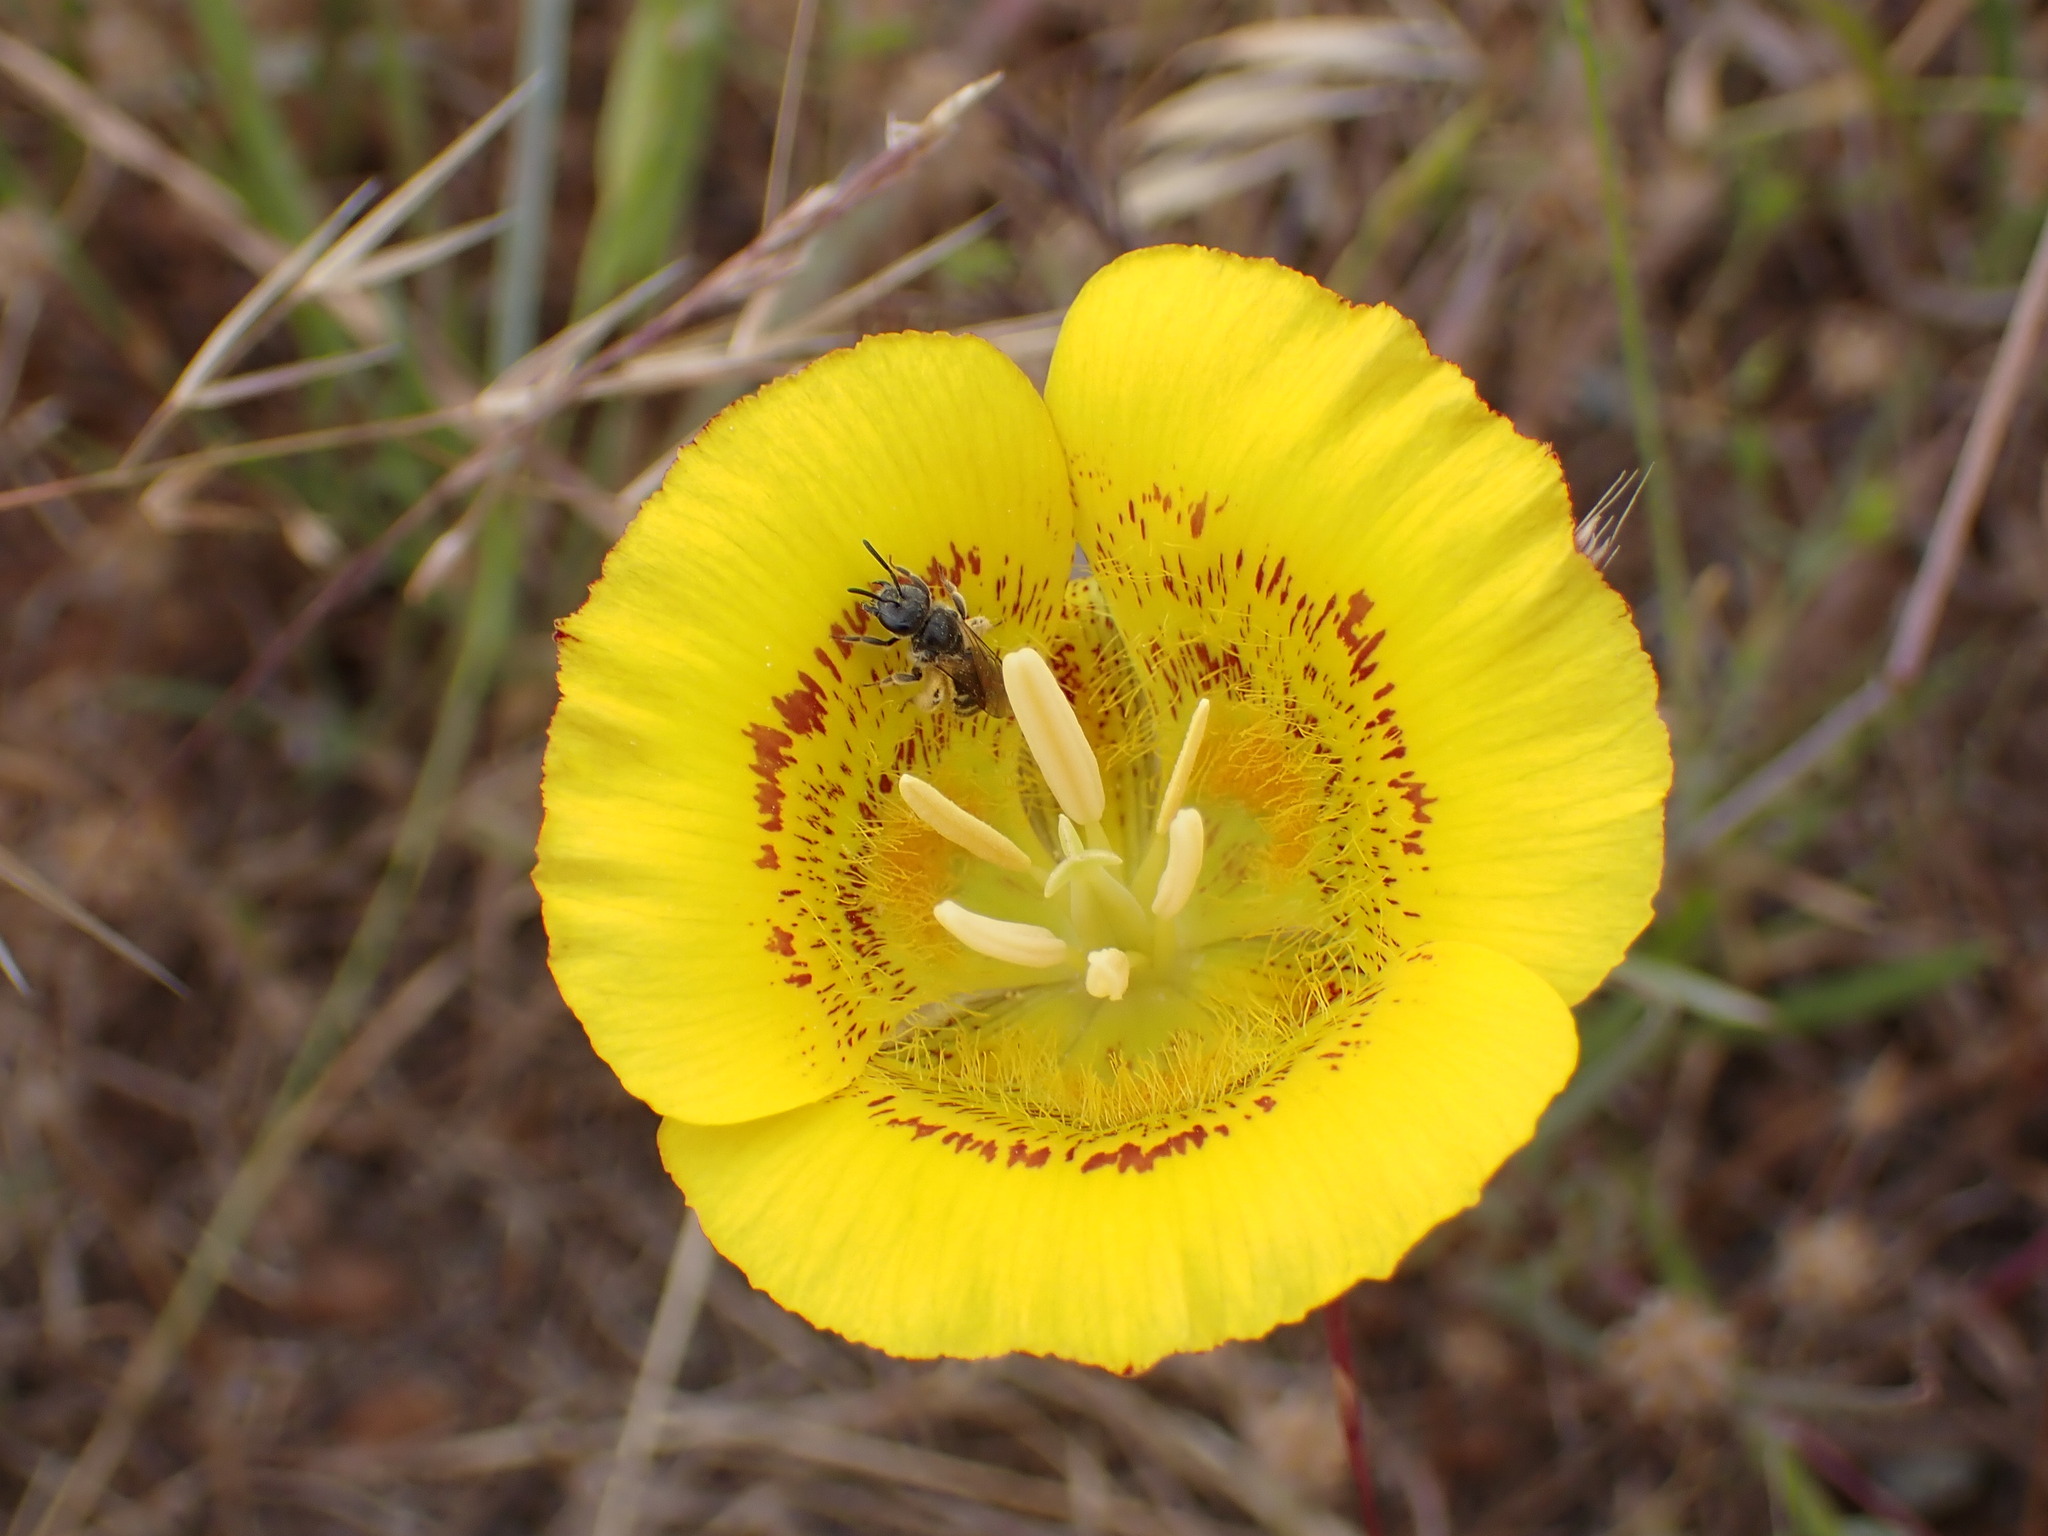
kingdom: Plantae
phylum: Tracheophyta
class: Liliopsida
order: Liliales
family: Liliaceae
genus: Calochortus
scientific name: Calochortus luteus
